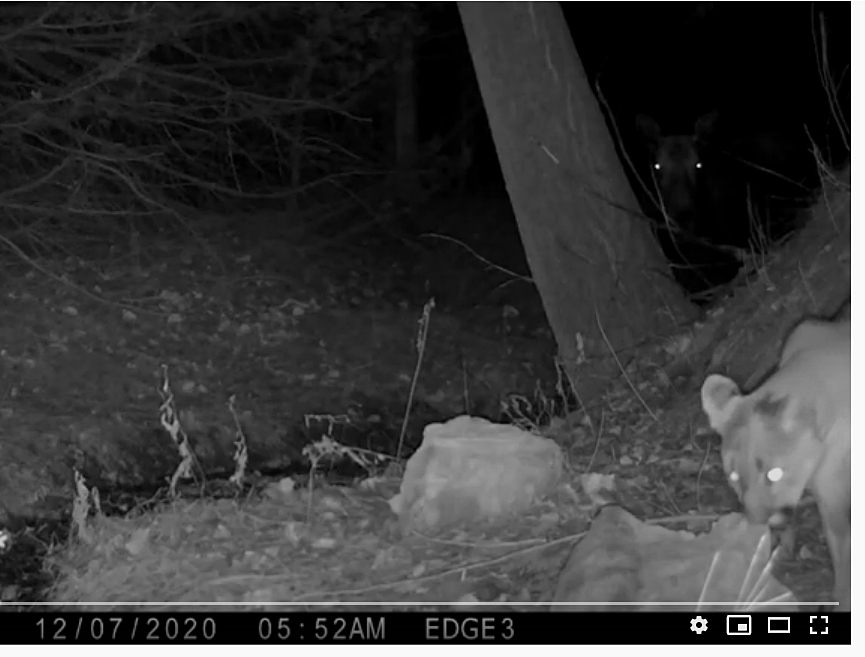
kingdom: Animalia
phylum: Chordata
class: Mammalia
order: Carnivora
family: Felidae
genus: Puma
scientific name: Puma concolor
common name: Puma
